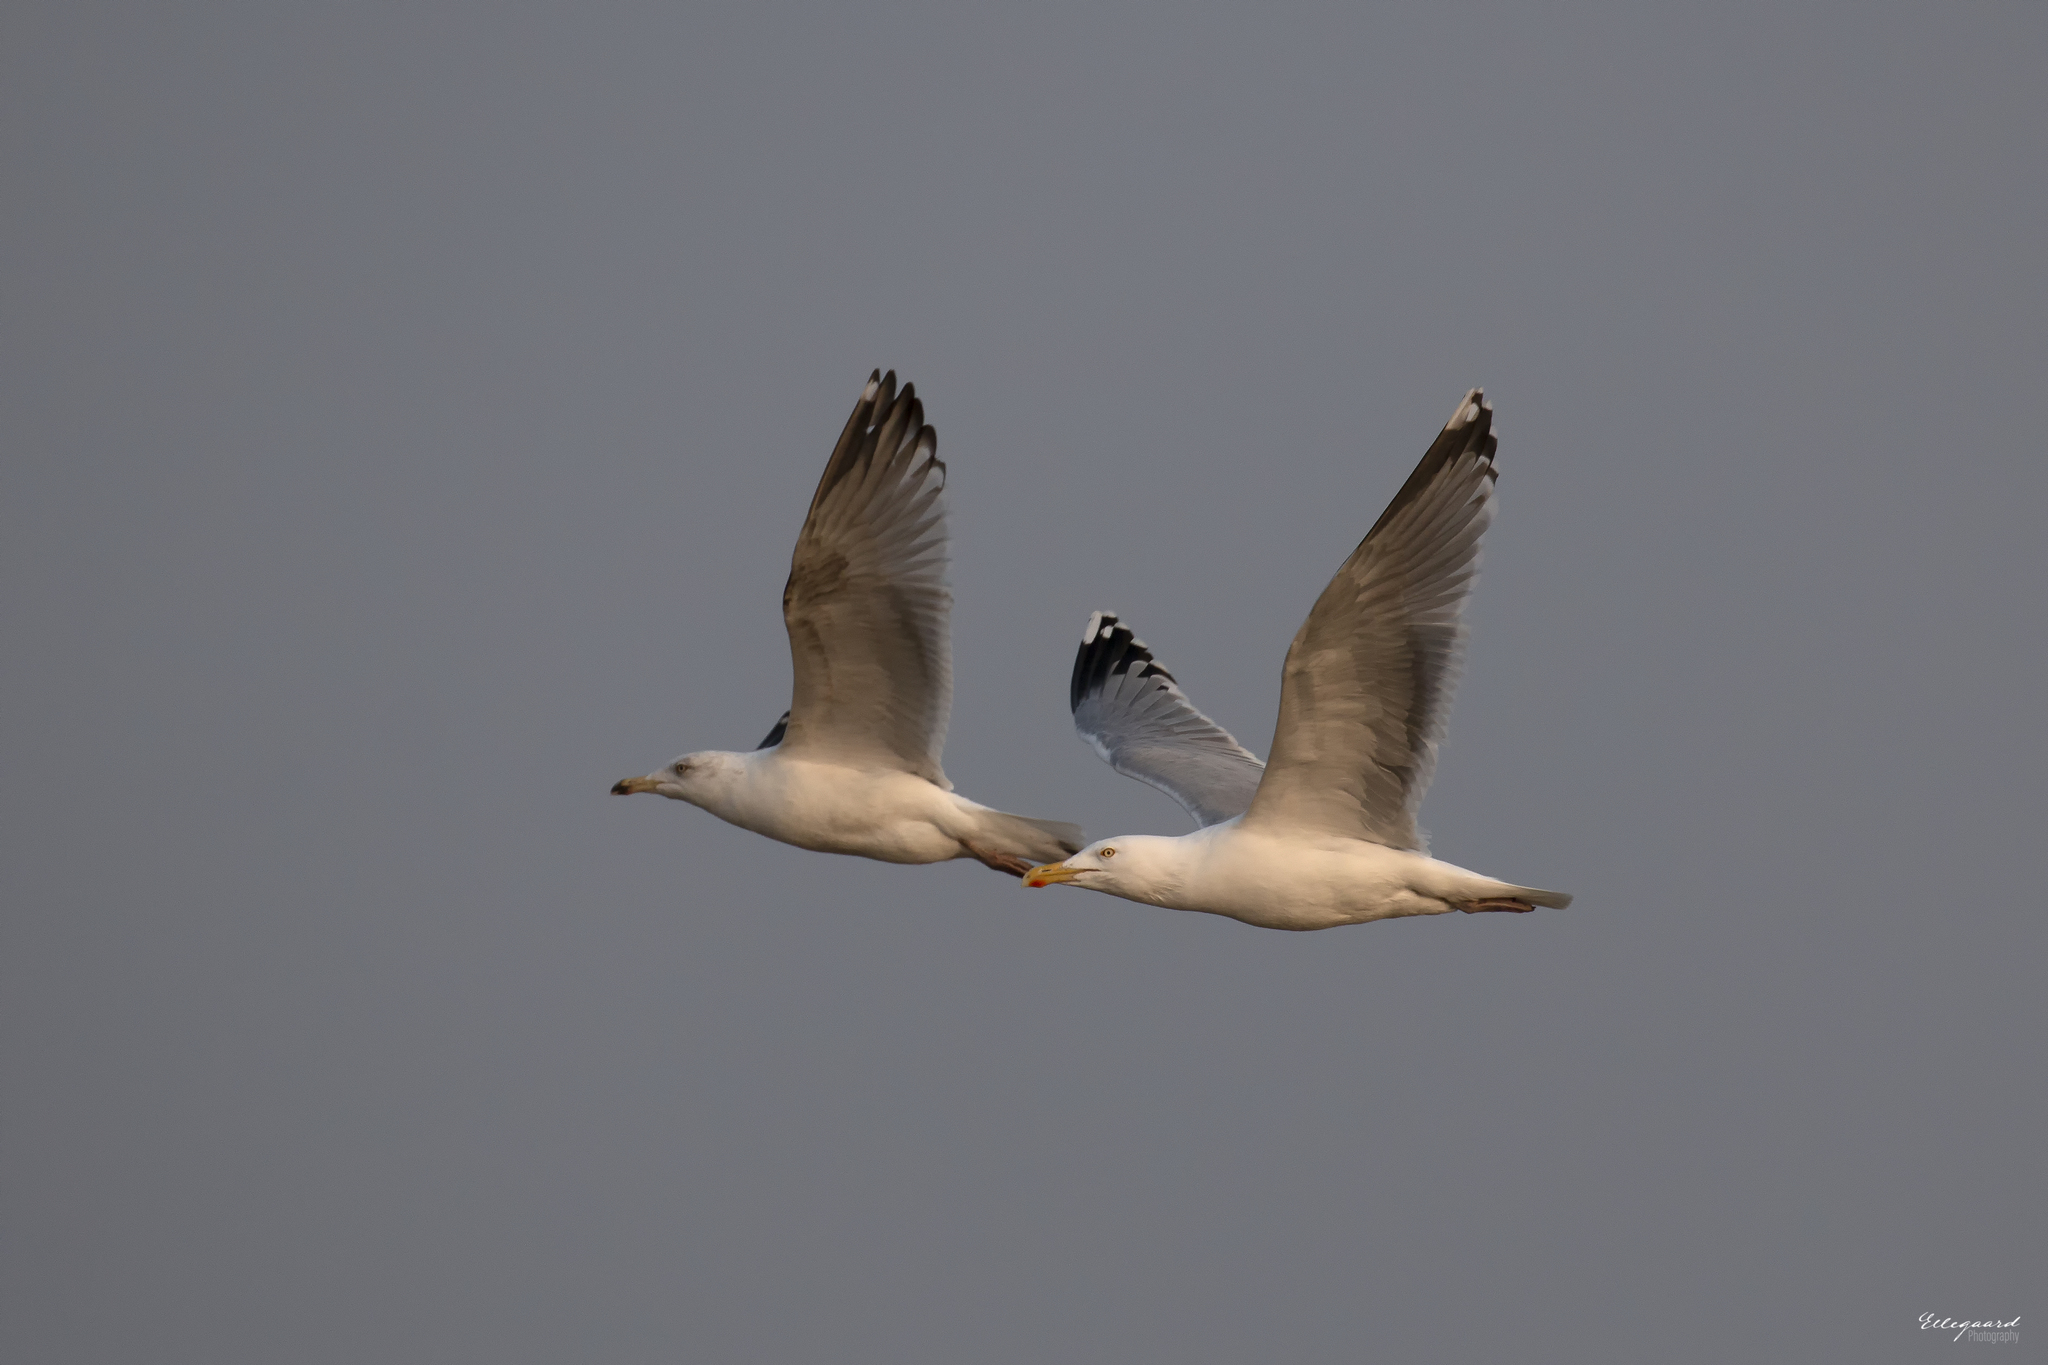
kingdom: Animalia
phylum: Chordata
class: Aves
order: Charadriiformes
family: Laridae
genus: Larus
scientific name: Larus argentatus
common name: Herring gull
